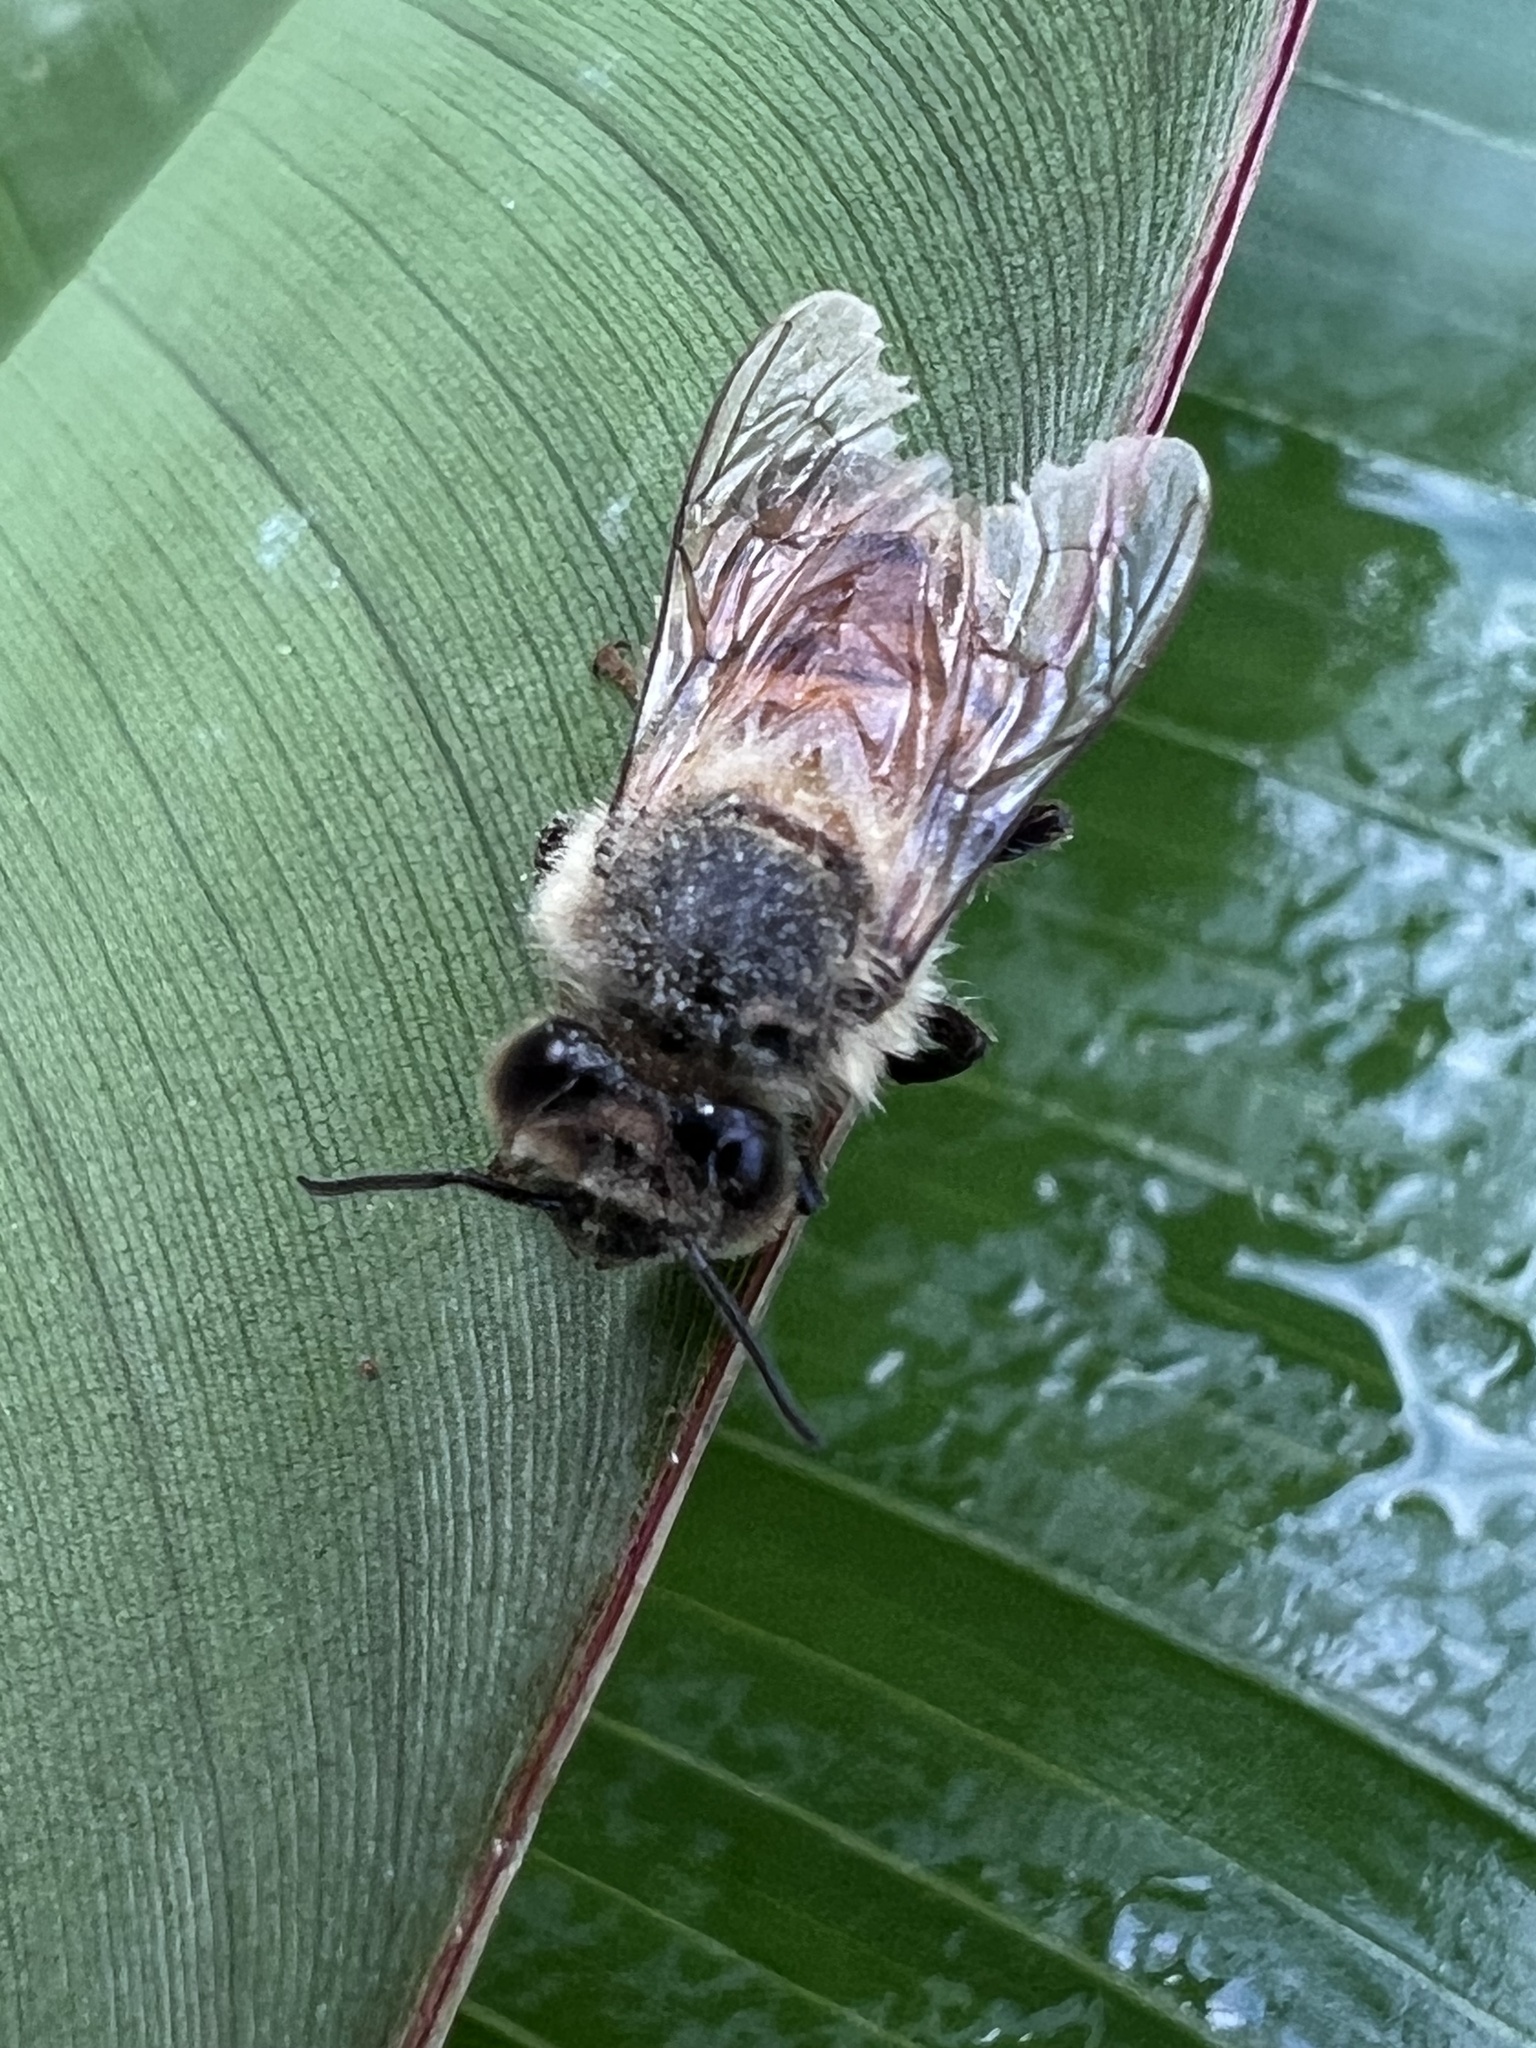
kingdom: Animalia
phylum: Arthropoda
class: Insecta
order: Hymenoptera
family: Apidae
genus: Apis
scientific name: Apis mellifera
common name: Honey bee
